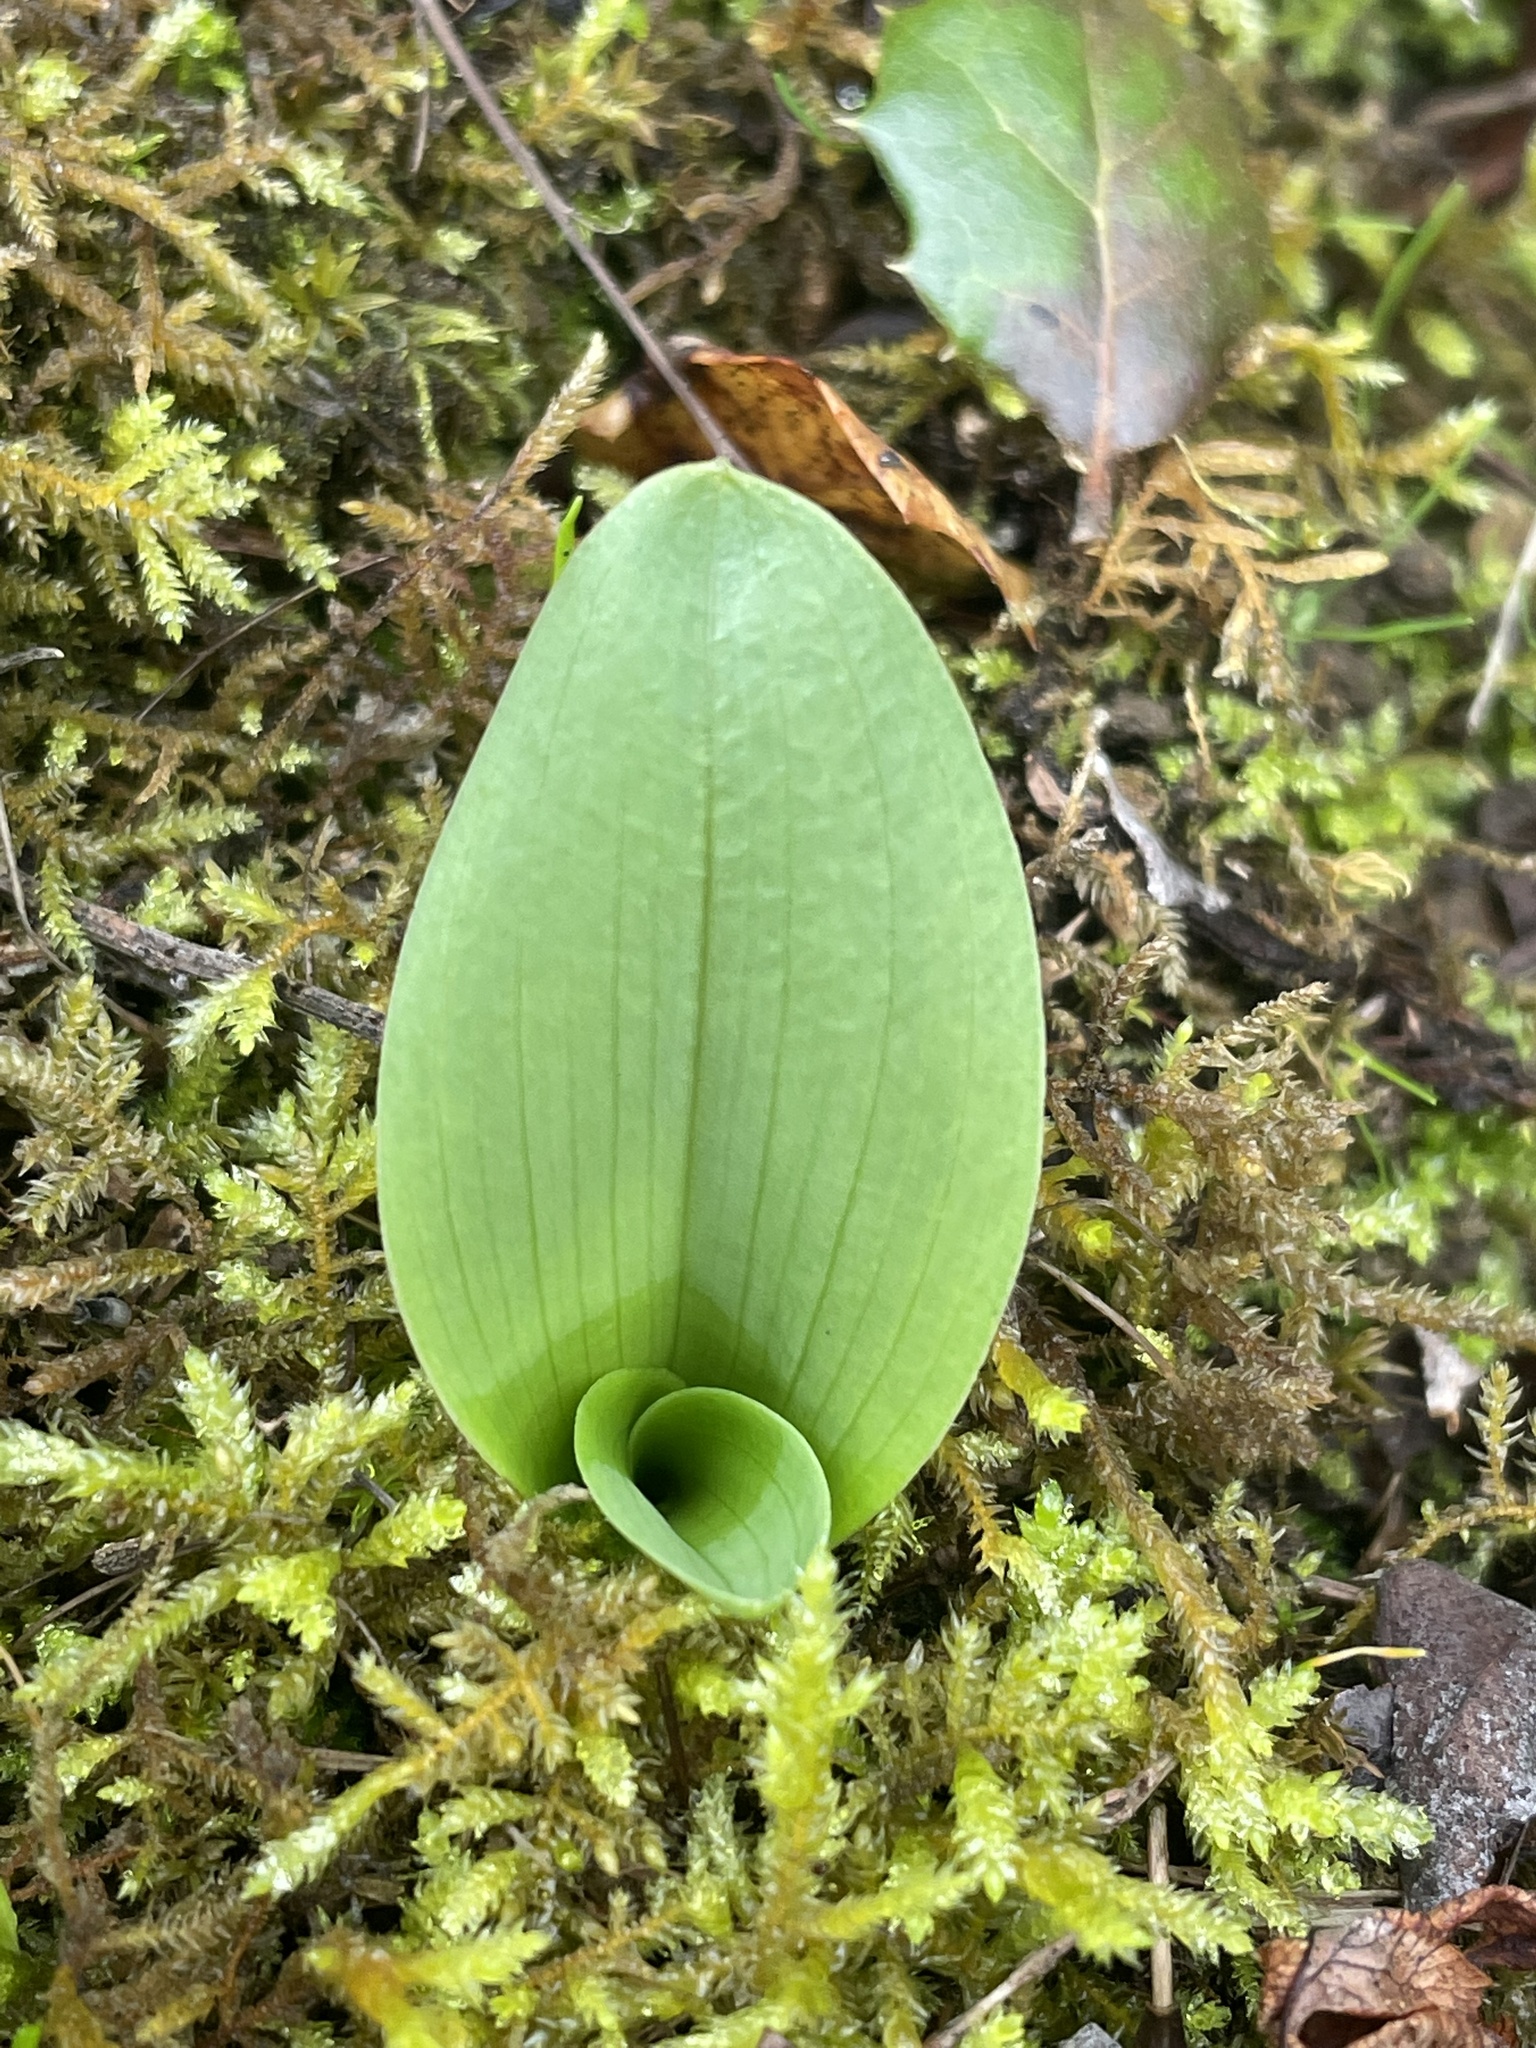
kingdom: Plantae
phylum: Tracheophyta
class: Liliopsida
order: Asparagales
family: Orchidaceae
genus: Platanthera
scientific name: Platanthera elegans
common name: Coast piperia
